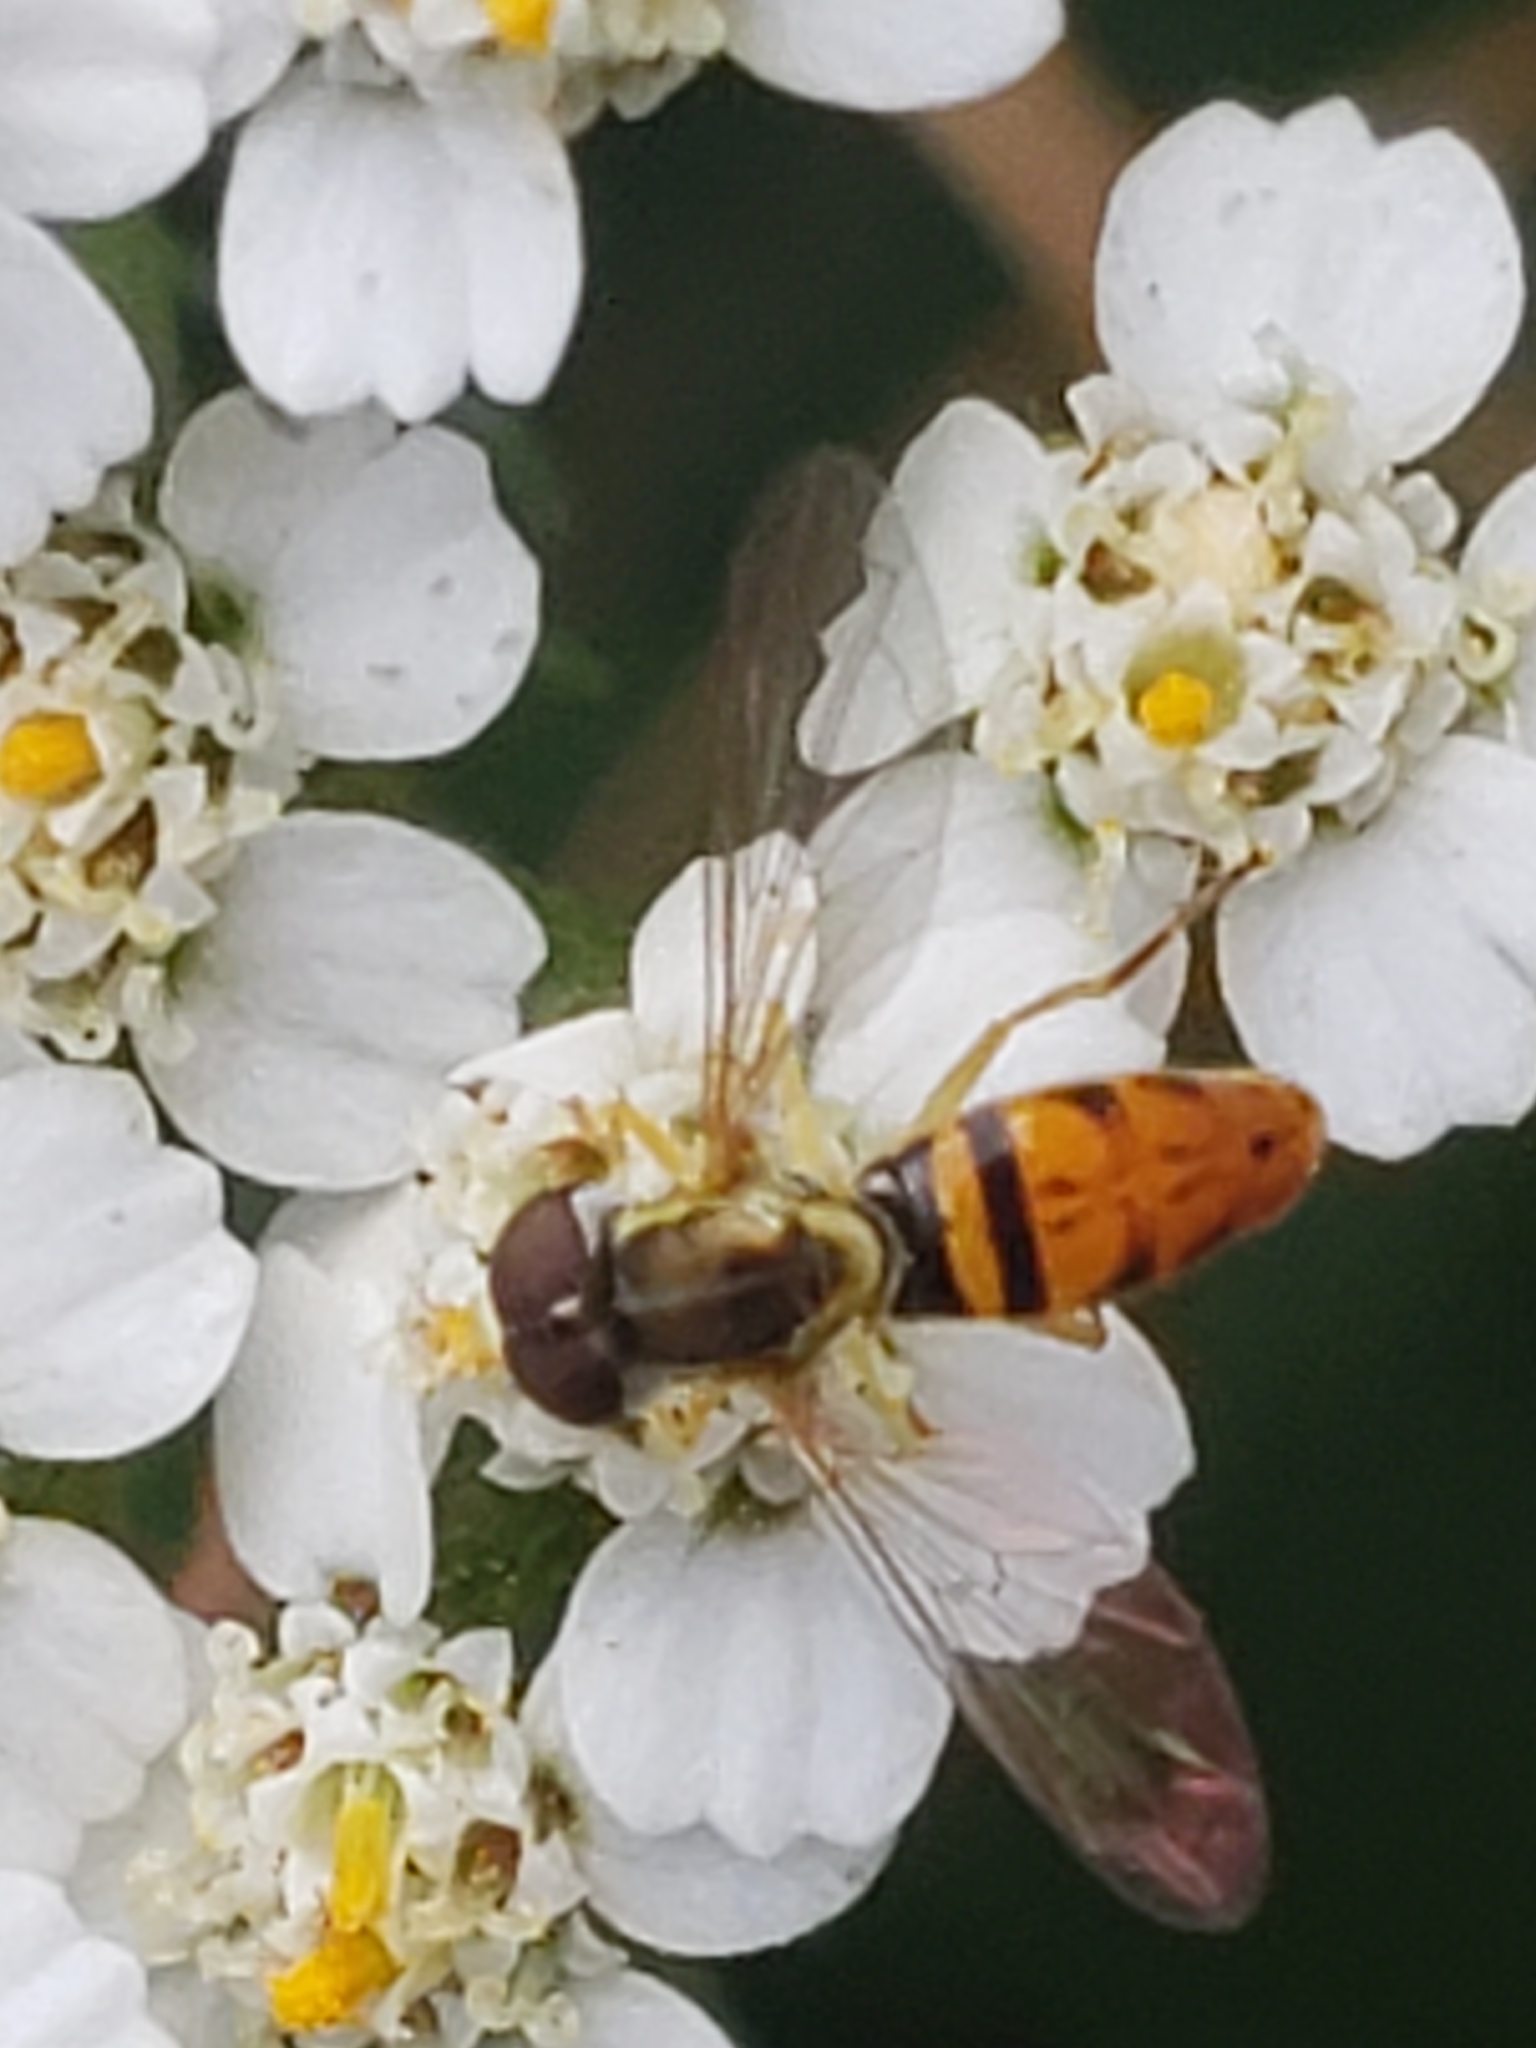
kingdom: Animalia
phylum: Arthropoda
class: Insecta
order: Diptera
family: Syrphidae
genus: Toxomerus
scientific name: Toxomerus marginatus
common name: Syrphid fly
